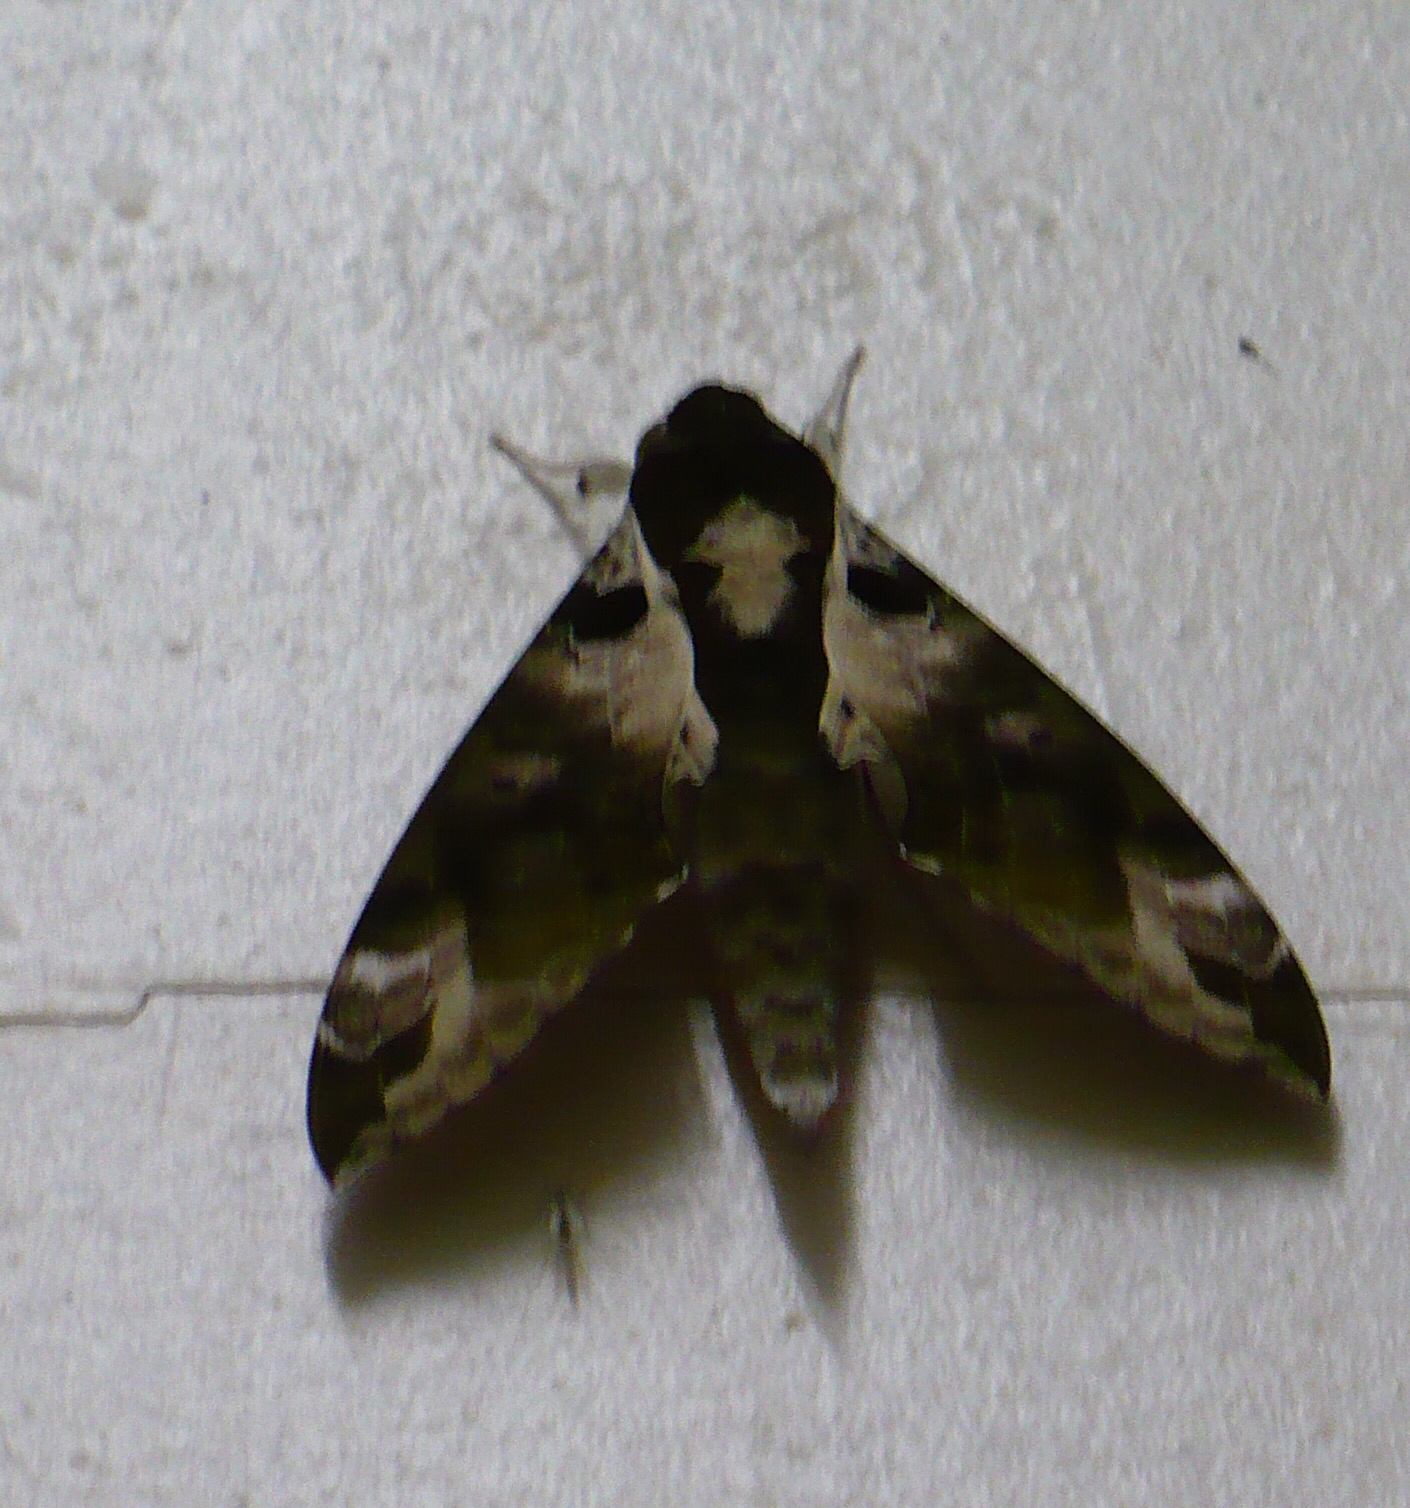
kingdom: Animalia
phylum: Arthropoda
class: Insecta
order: Lepidoptera
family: Sphingidae
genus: Cechenena
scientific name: Cechenena helops
